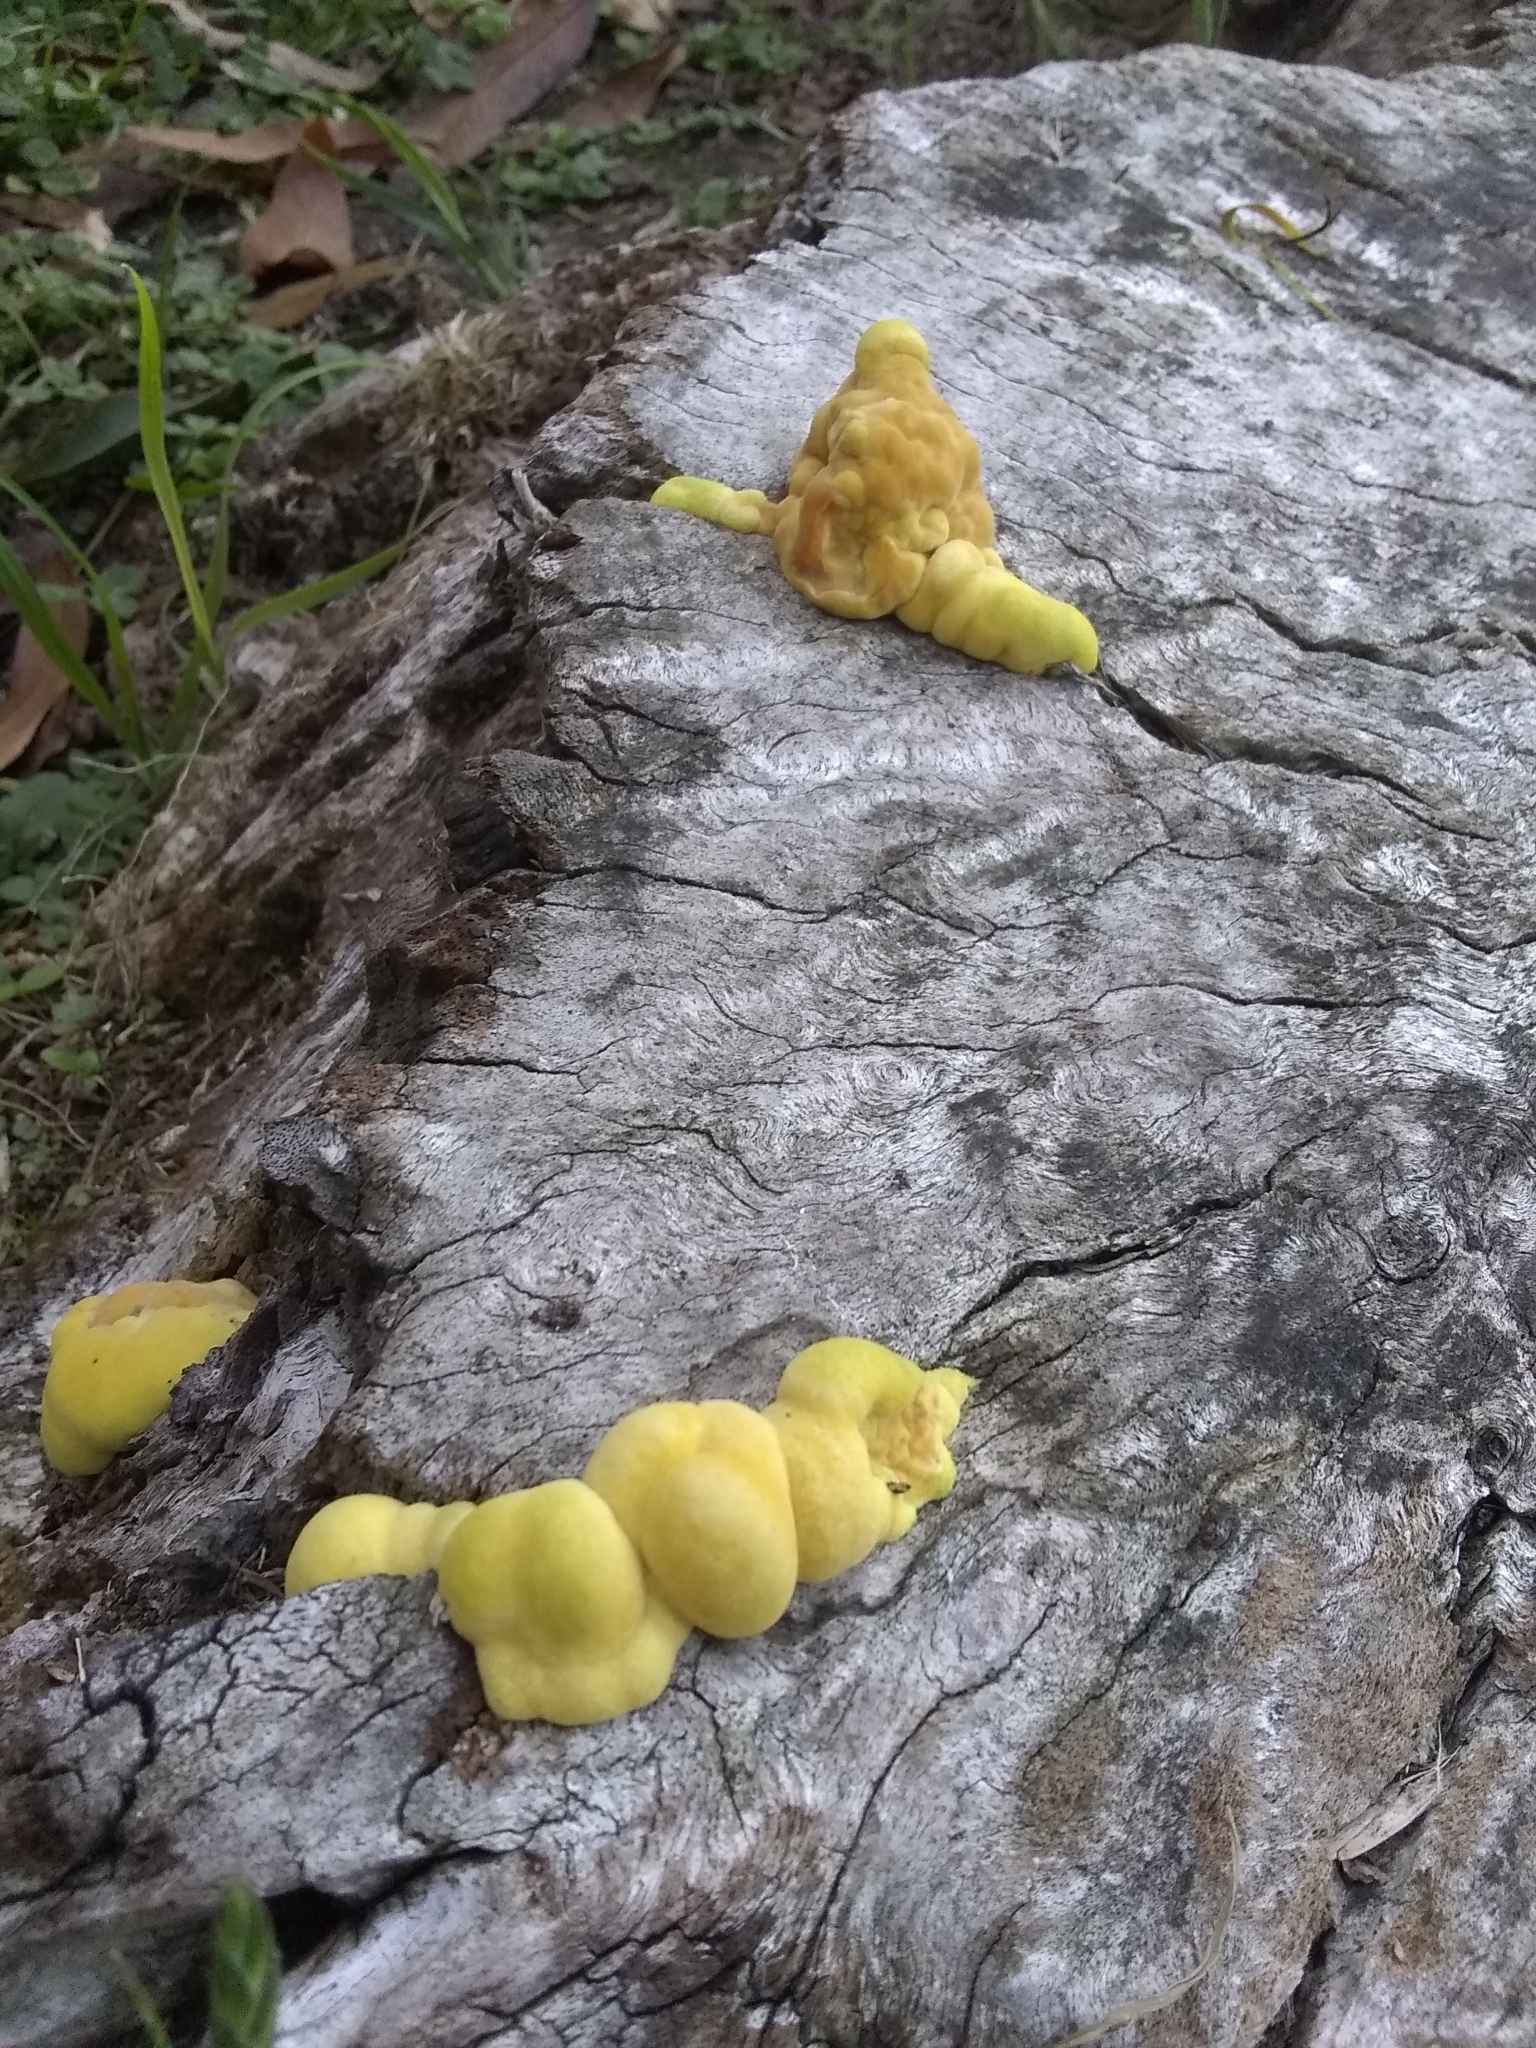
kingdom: Fungi
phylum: Basidiomycota
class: Agaricomycetes
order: Polyporales
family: Laetiporaceae
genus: Laetiporus
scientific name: Laetiporus gilbertsonii
